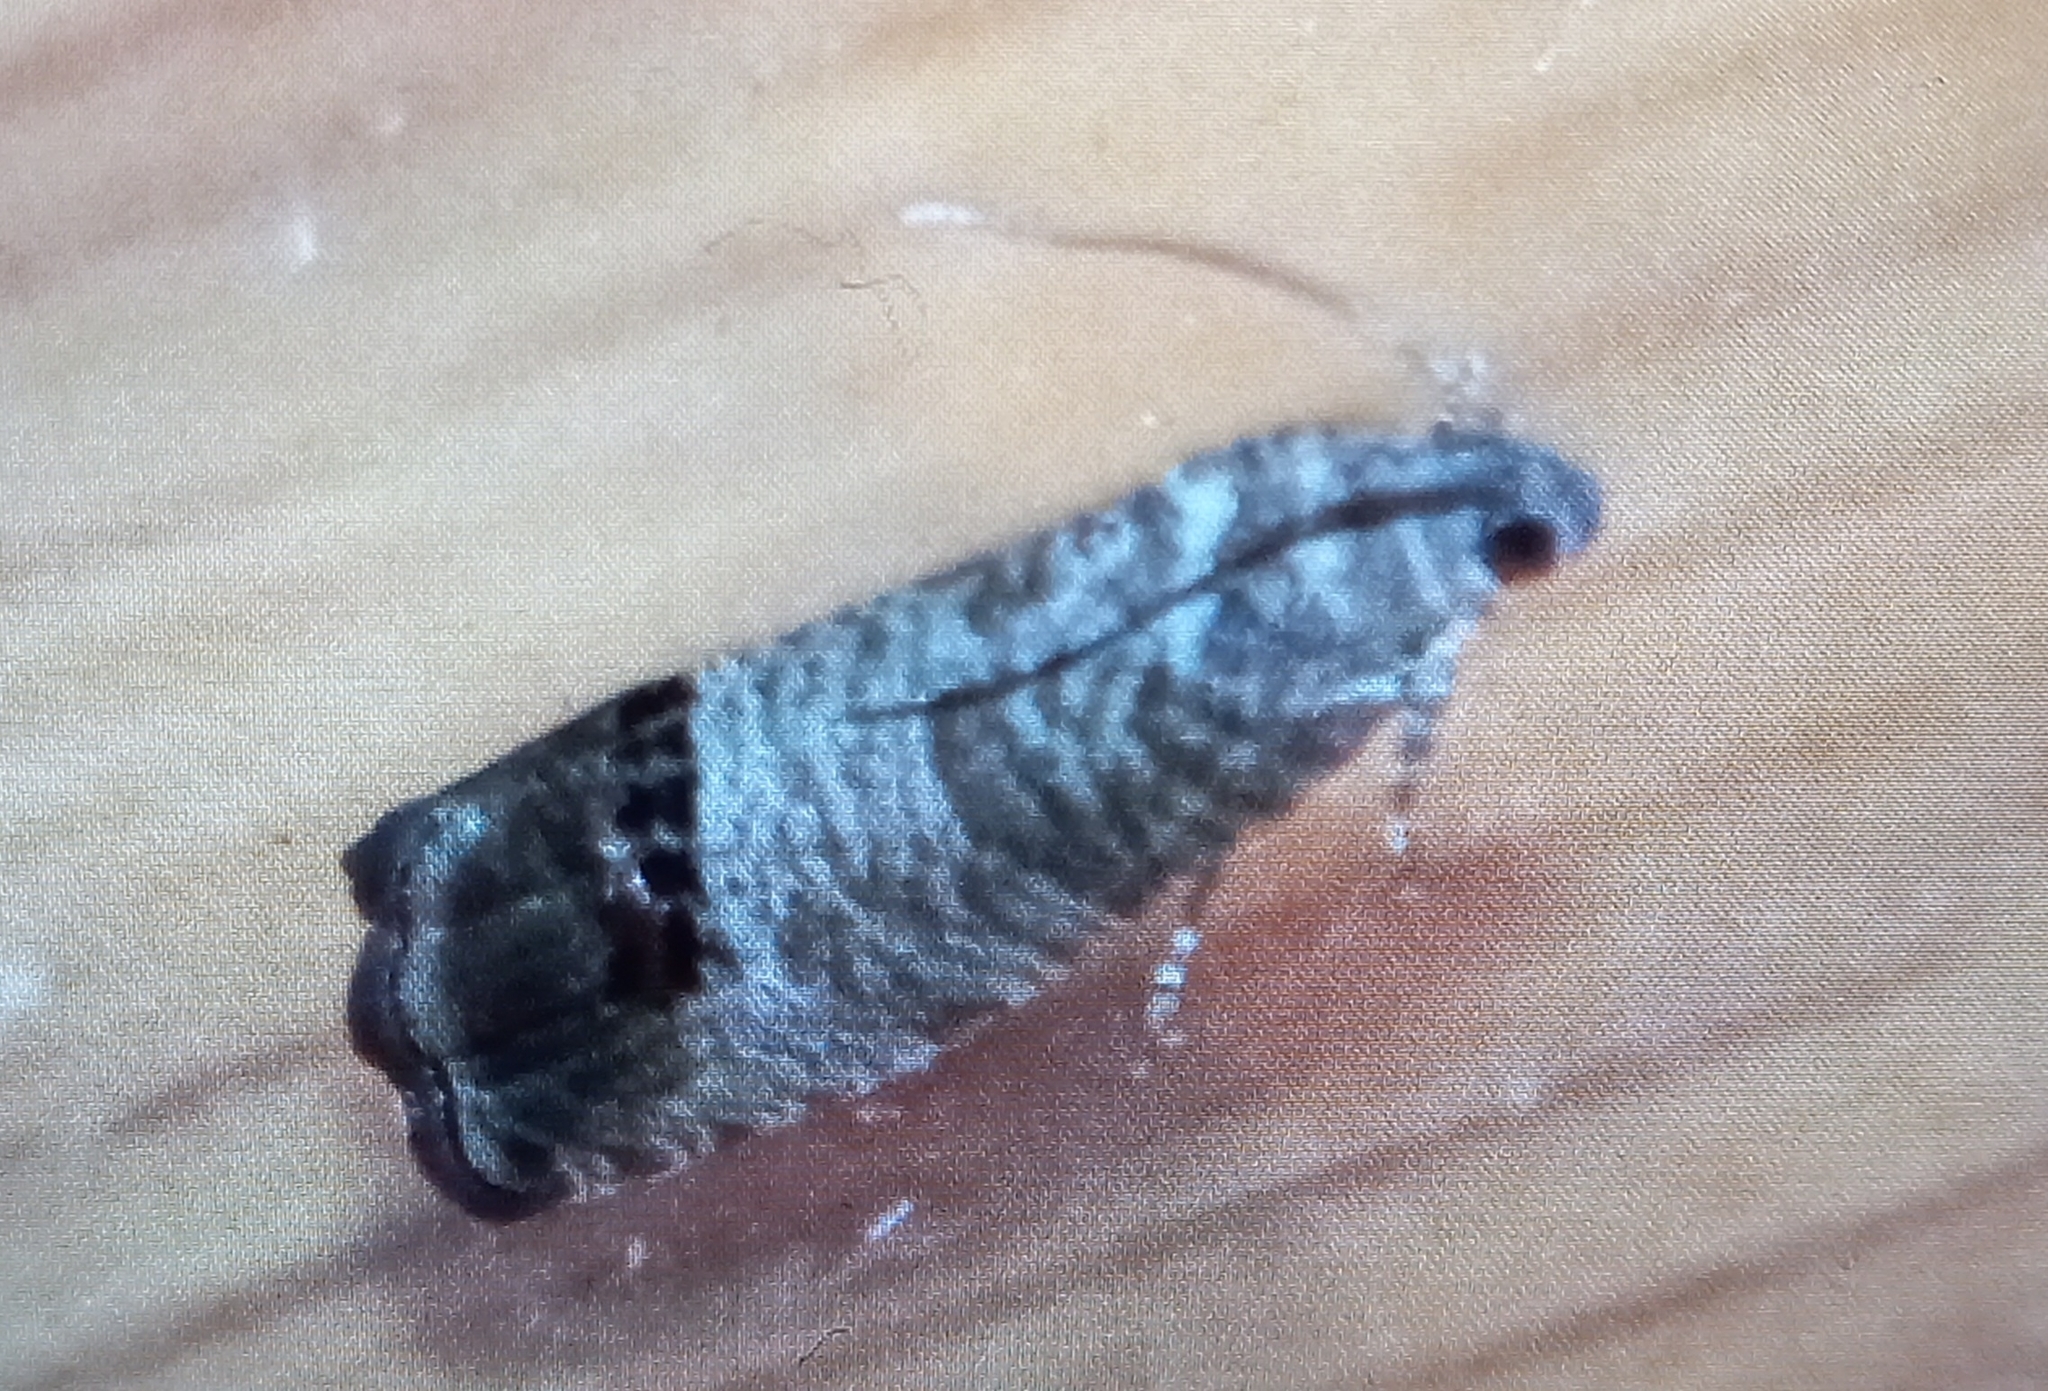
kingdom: Animalia
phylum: Arthropoda
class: Insecta
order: Lepidoptera
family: Tortricidae
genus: Cydia
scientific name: Cydia pomonella
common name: Codling moth
